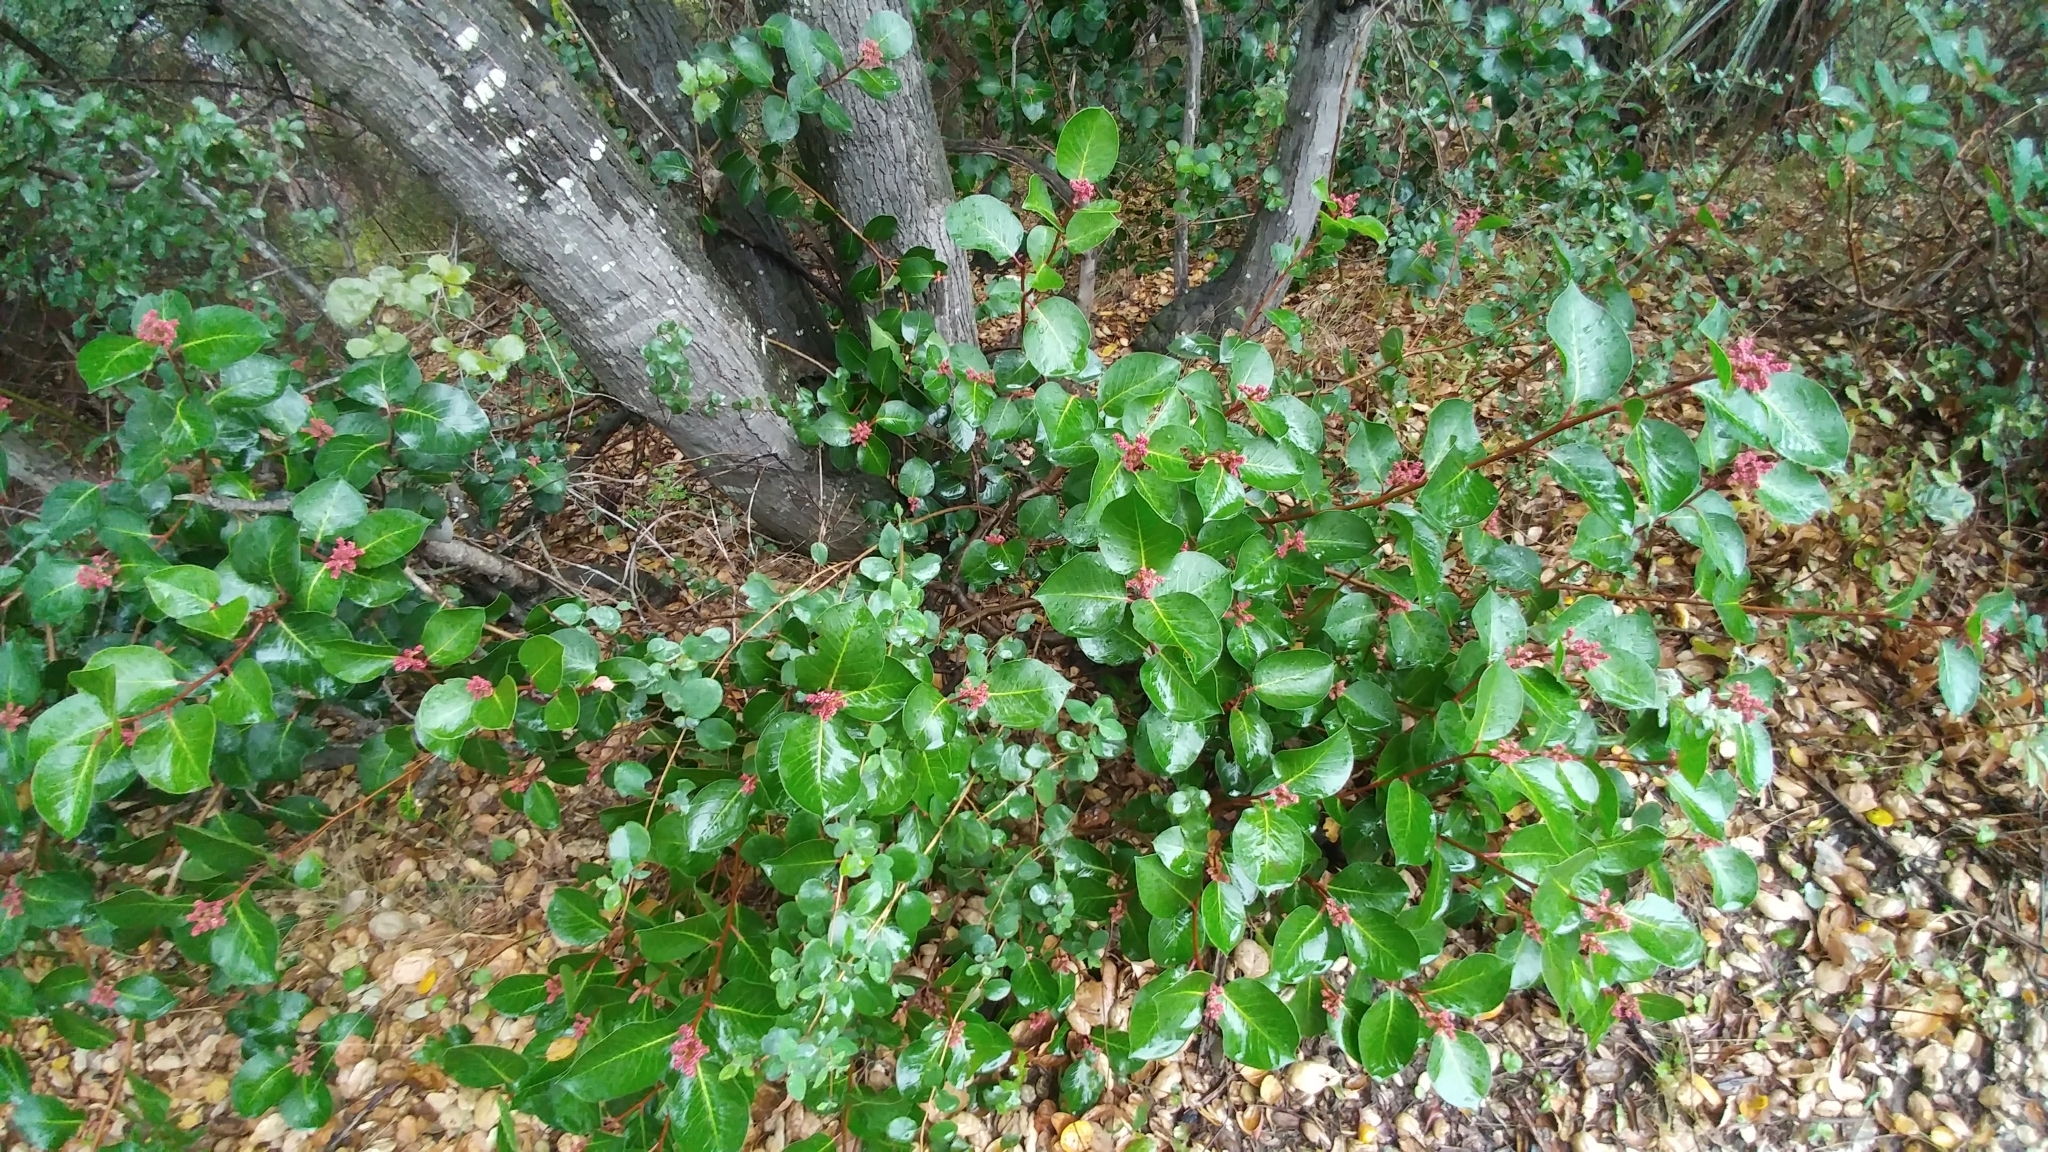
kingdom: Plantae
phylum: Tracheophyta
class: Magnoliopsida
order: Sapindales
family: Anacardiaceae
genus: Rhus
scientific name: Rhus ovata
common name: Sugar sumac
